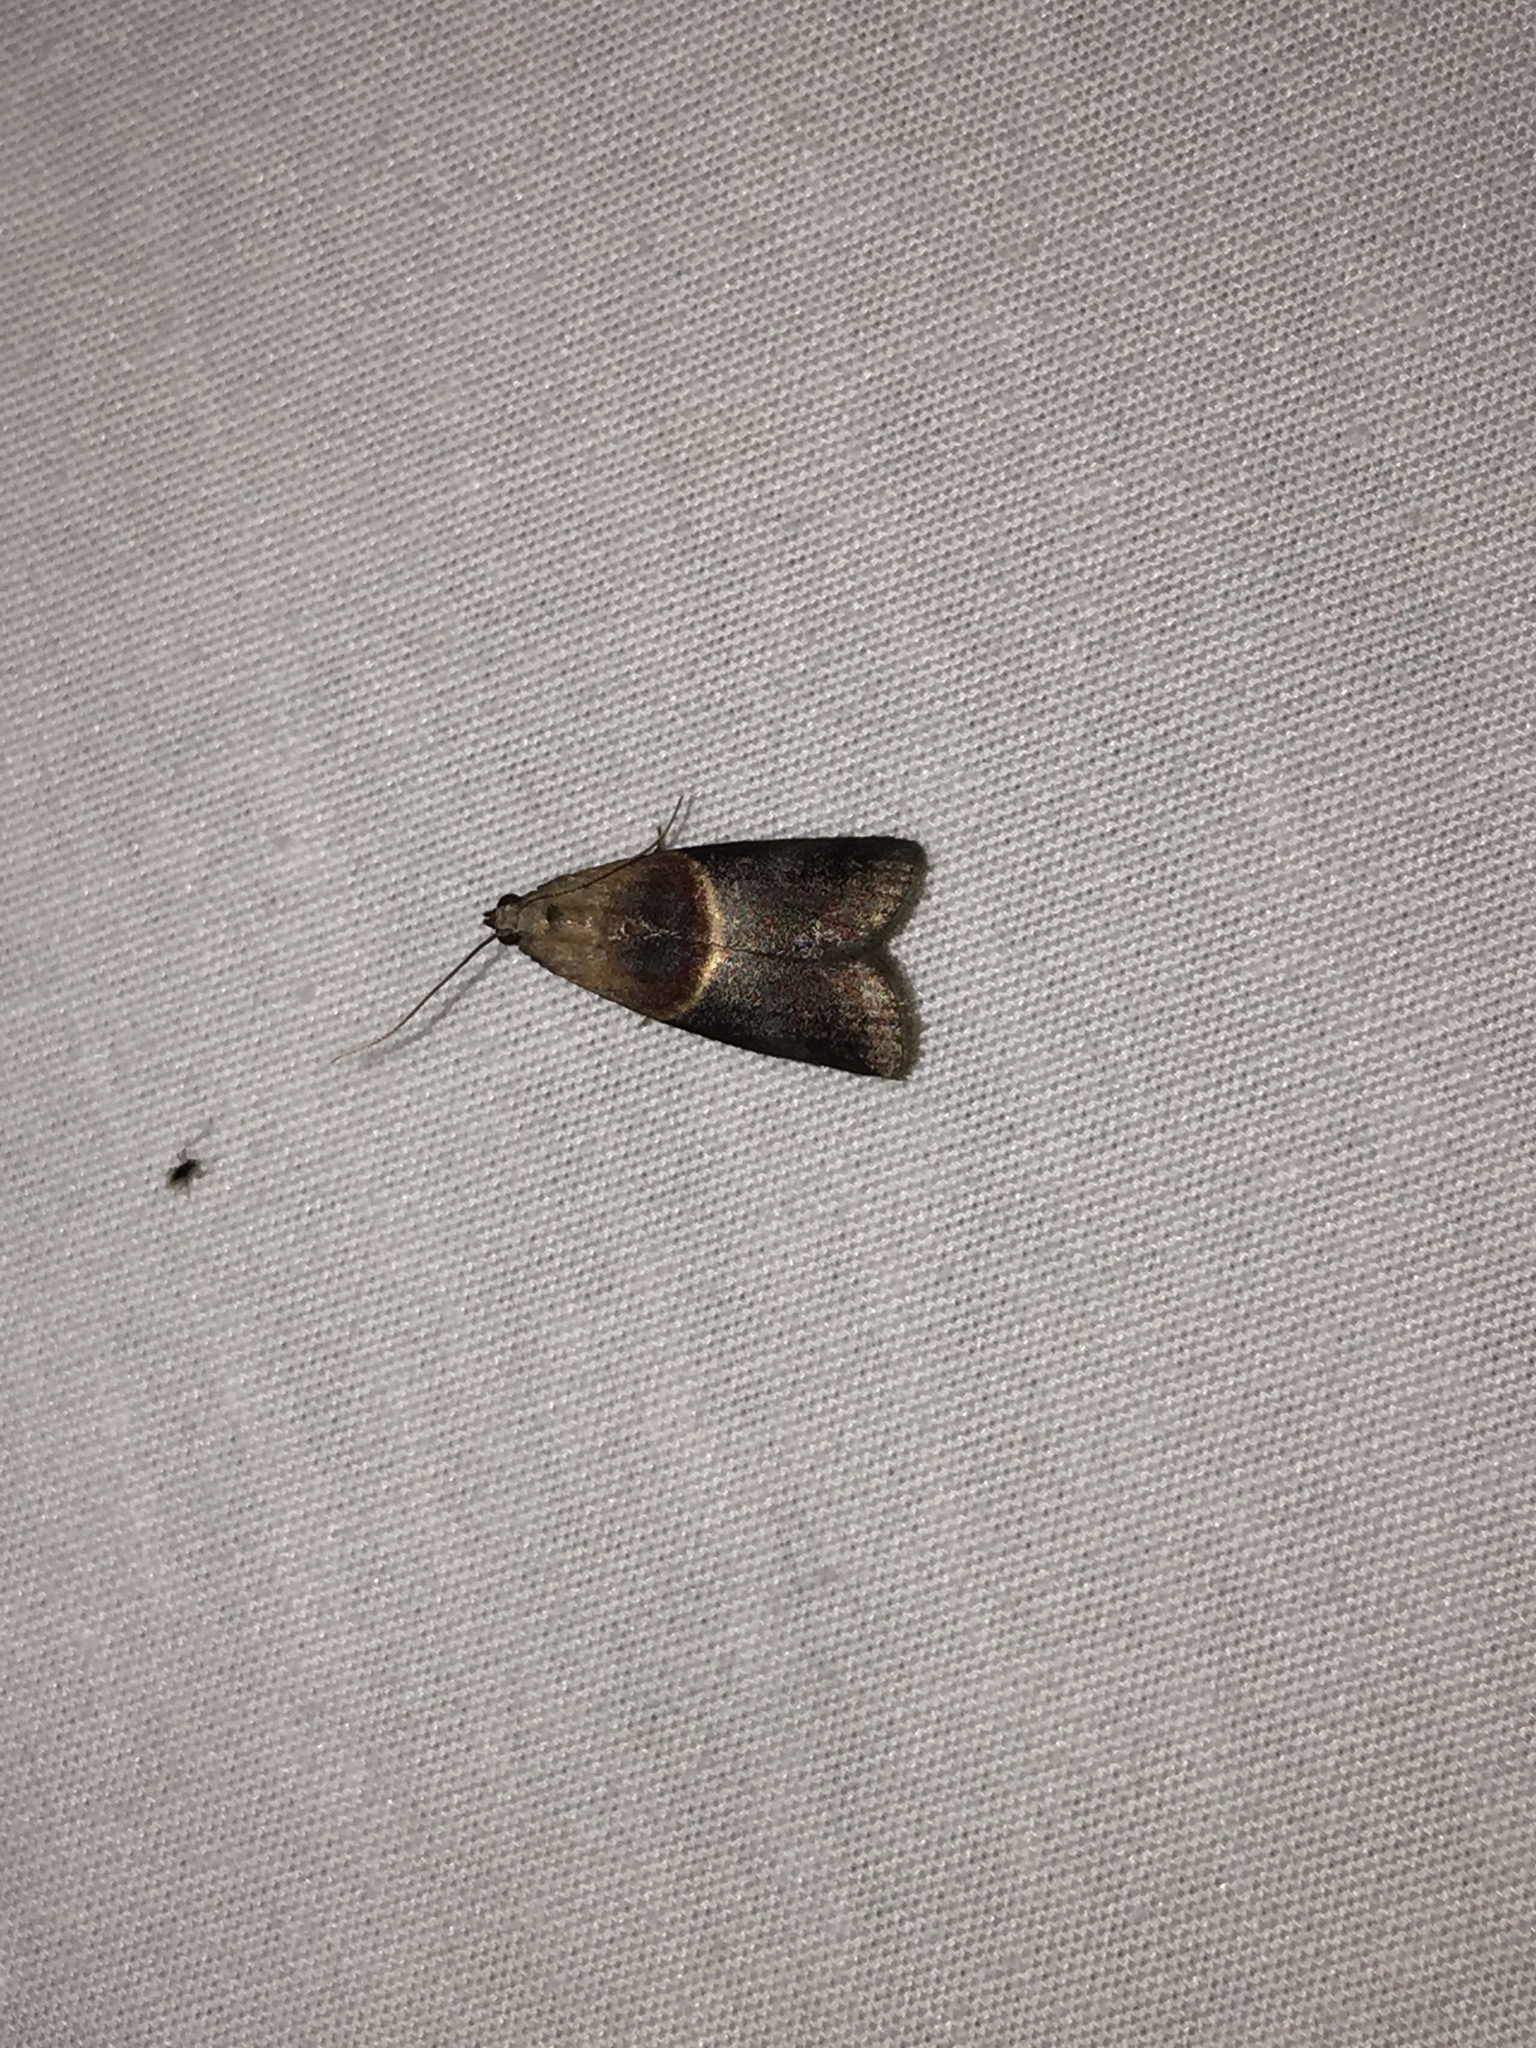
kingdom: Animalia
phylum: Arthropoda
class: Insecta
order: Lepidoptera
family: Pyralidae
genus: Acrobasis
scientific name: Acrobasis demotella
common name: Walnut shoot moth
